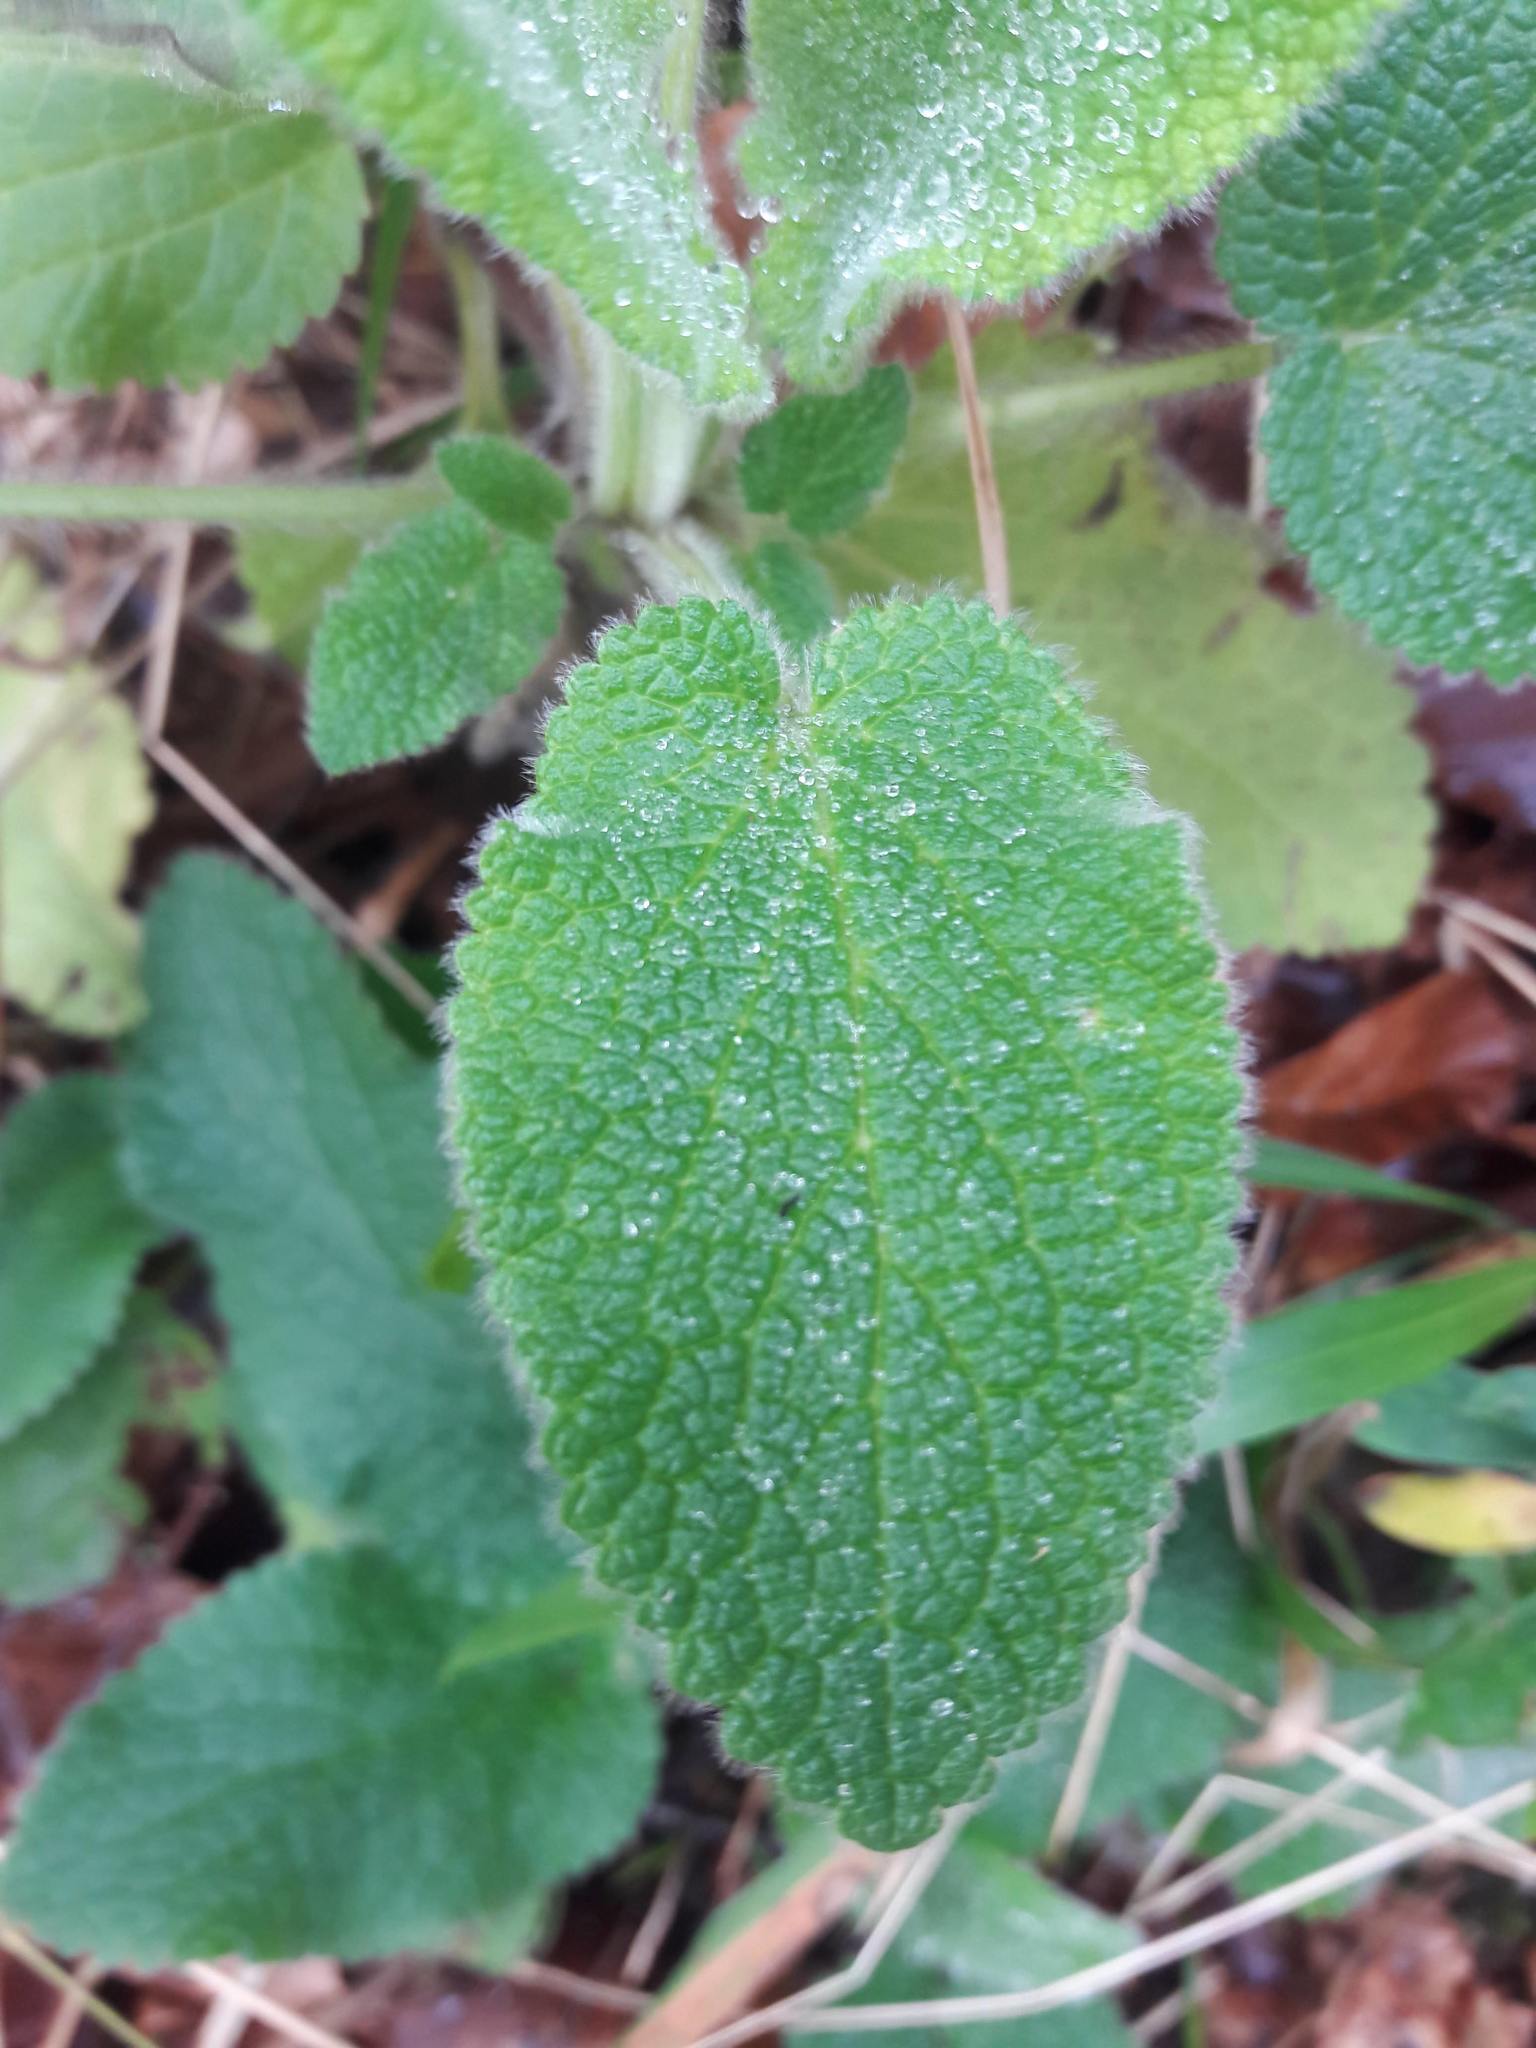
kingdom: Plantae
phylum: Tracheophyta
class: Magnoliopsida
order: Lamiales
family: Lamiaceae
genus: Teucrium
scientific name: Teucrium scorodonia
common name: Woodland germander
